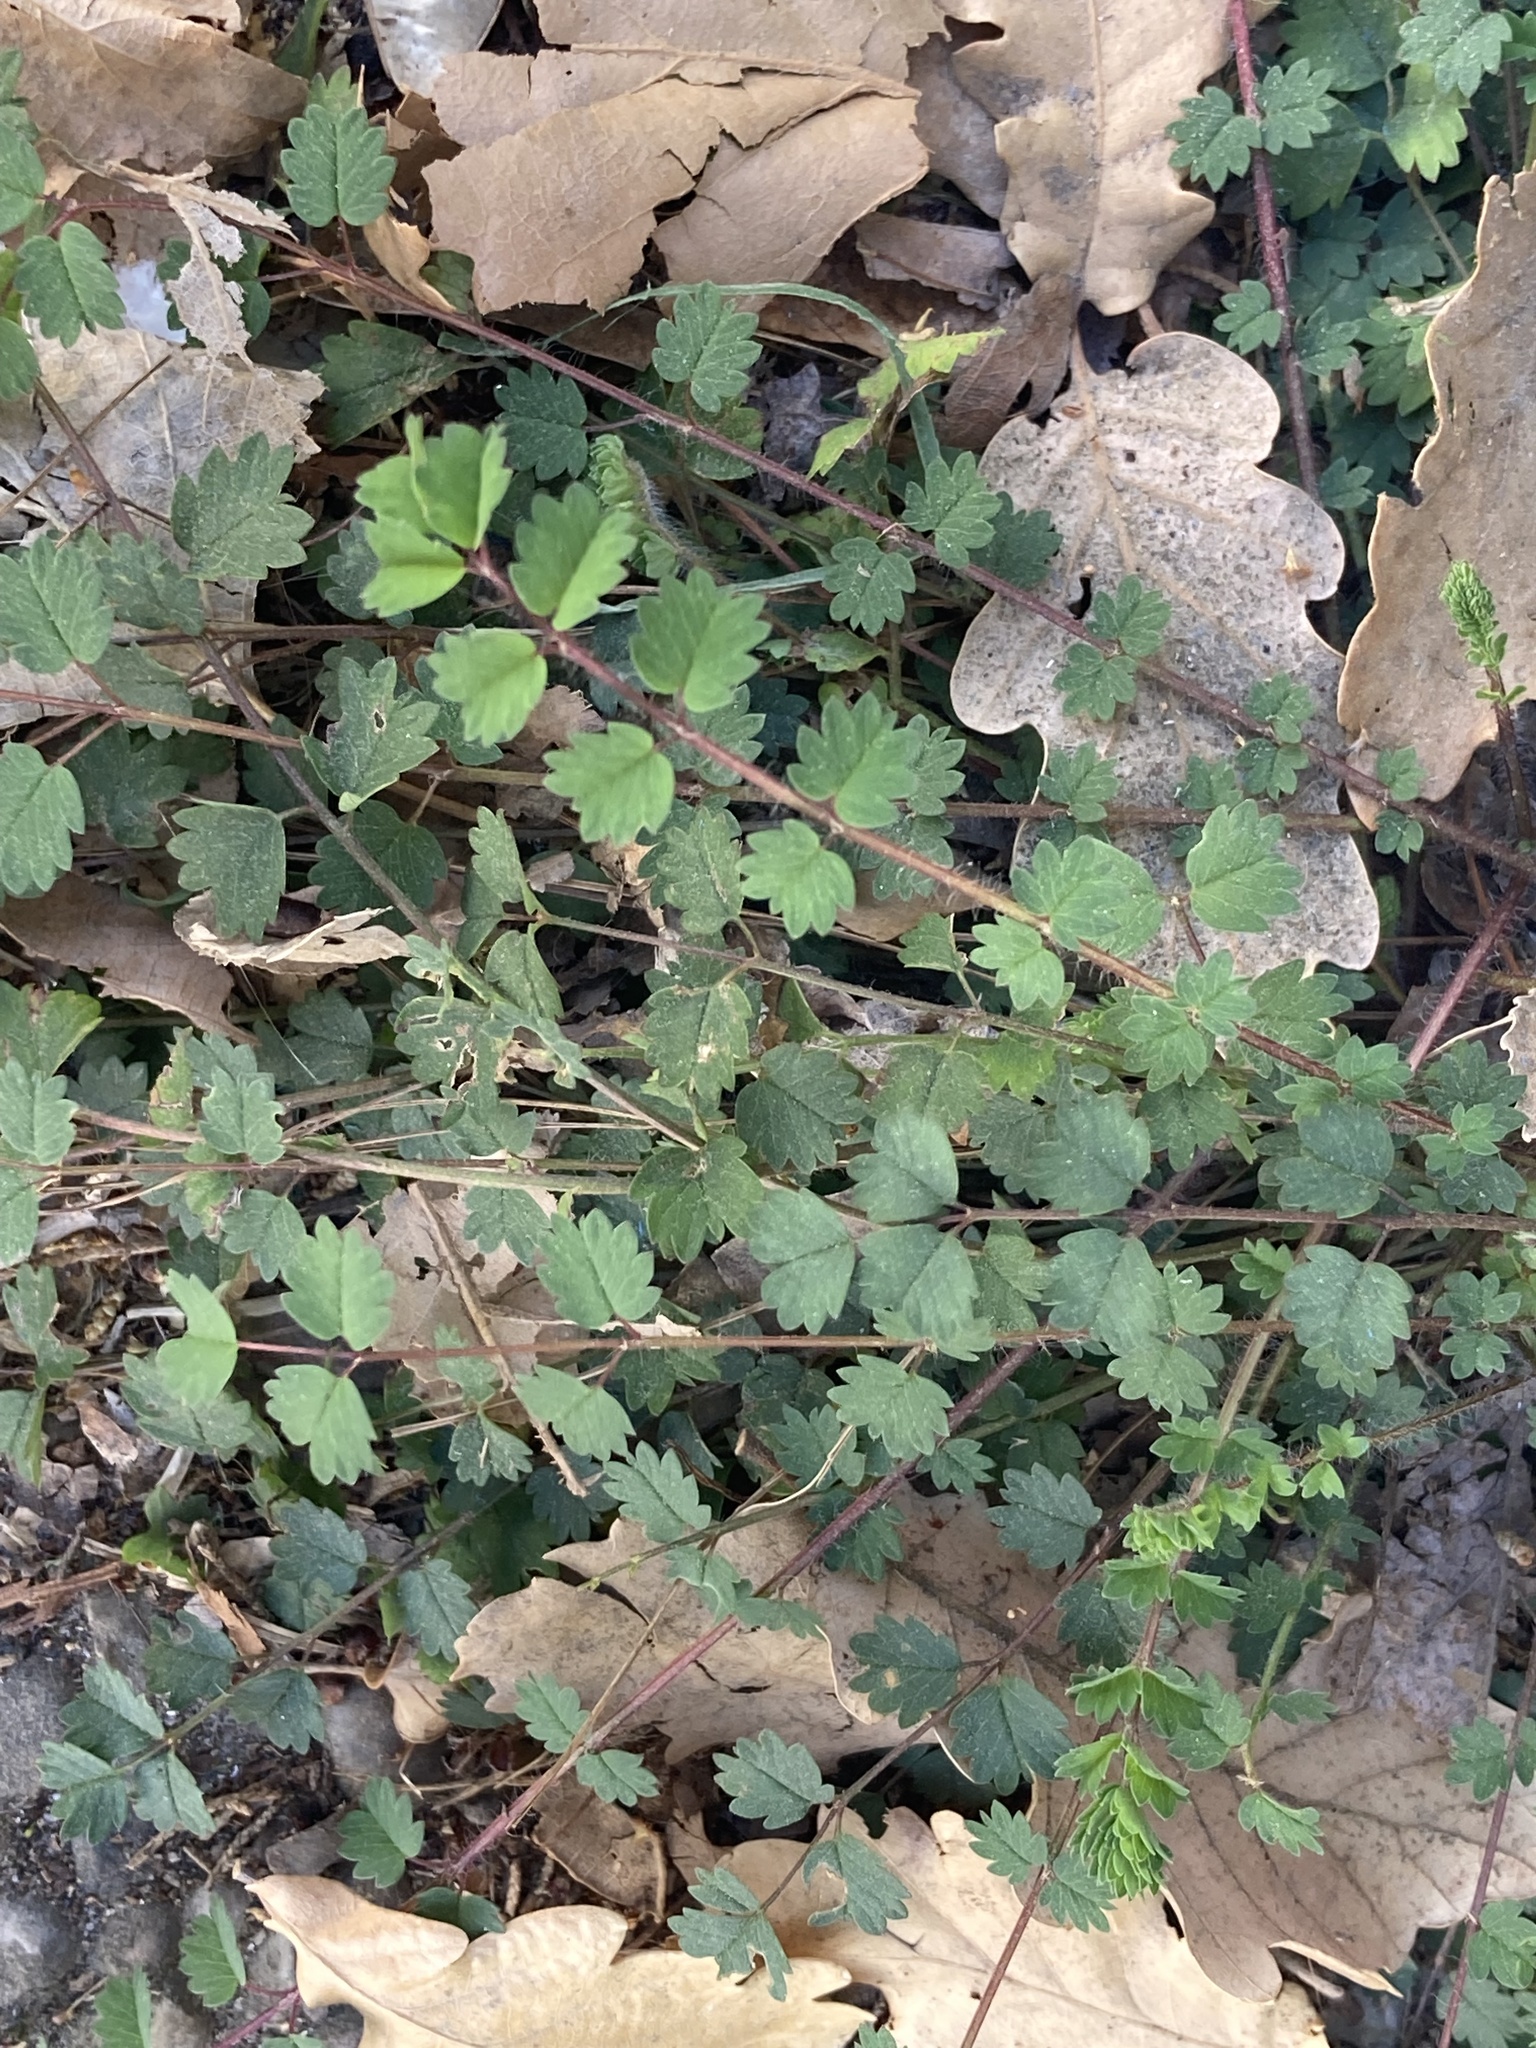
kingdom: Plantae
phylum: Tracheophyta
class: Magnoliopsida
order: Rosales
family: Rosaceae
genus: Poterium
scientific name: Poterium sanguisorba
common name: Salad burnet
